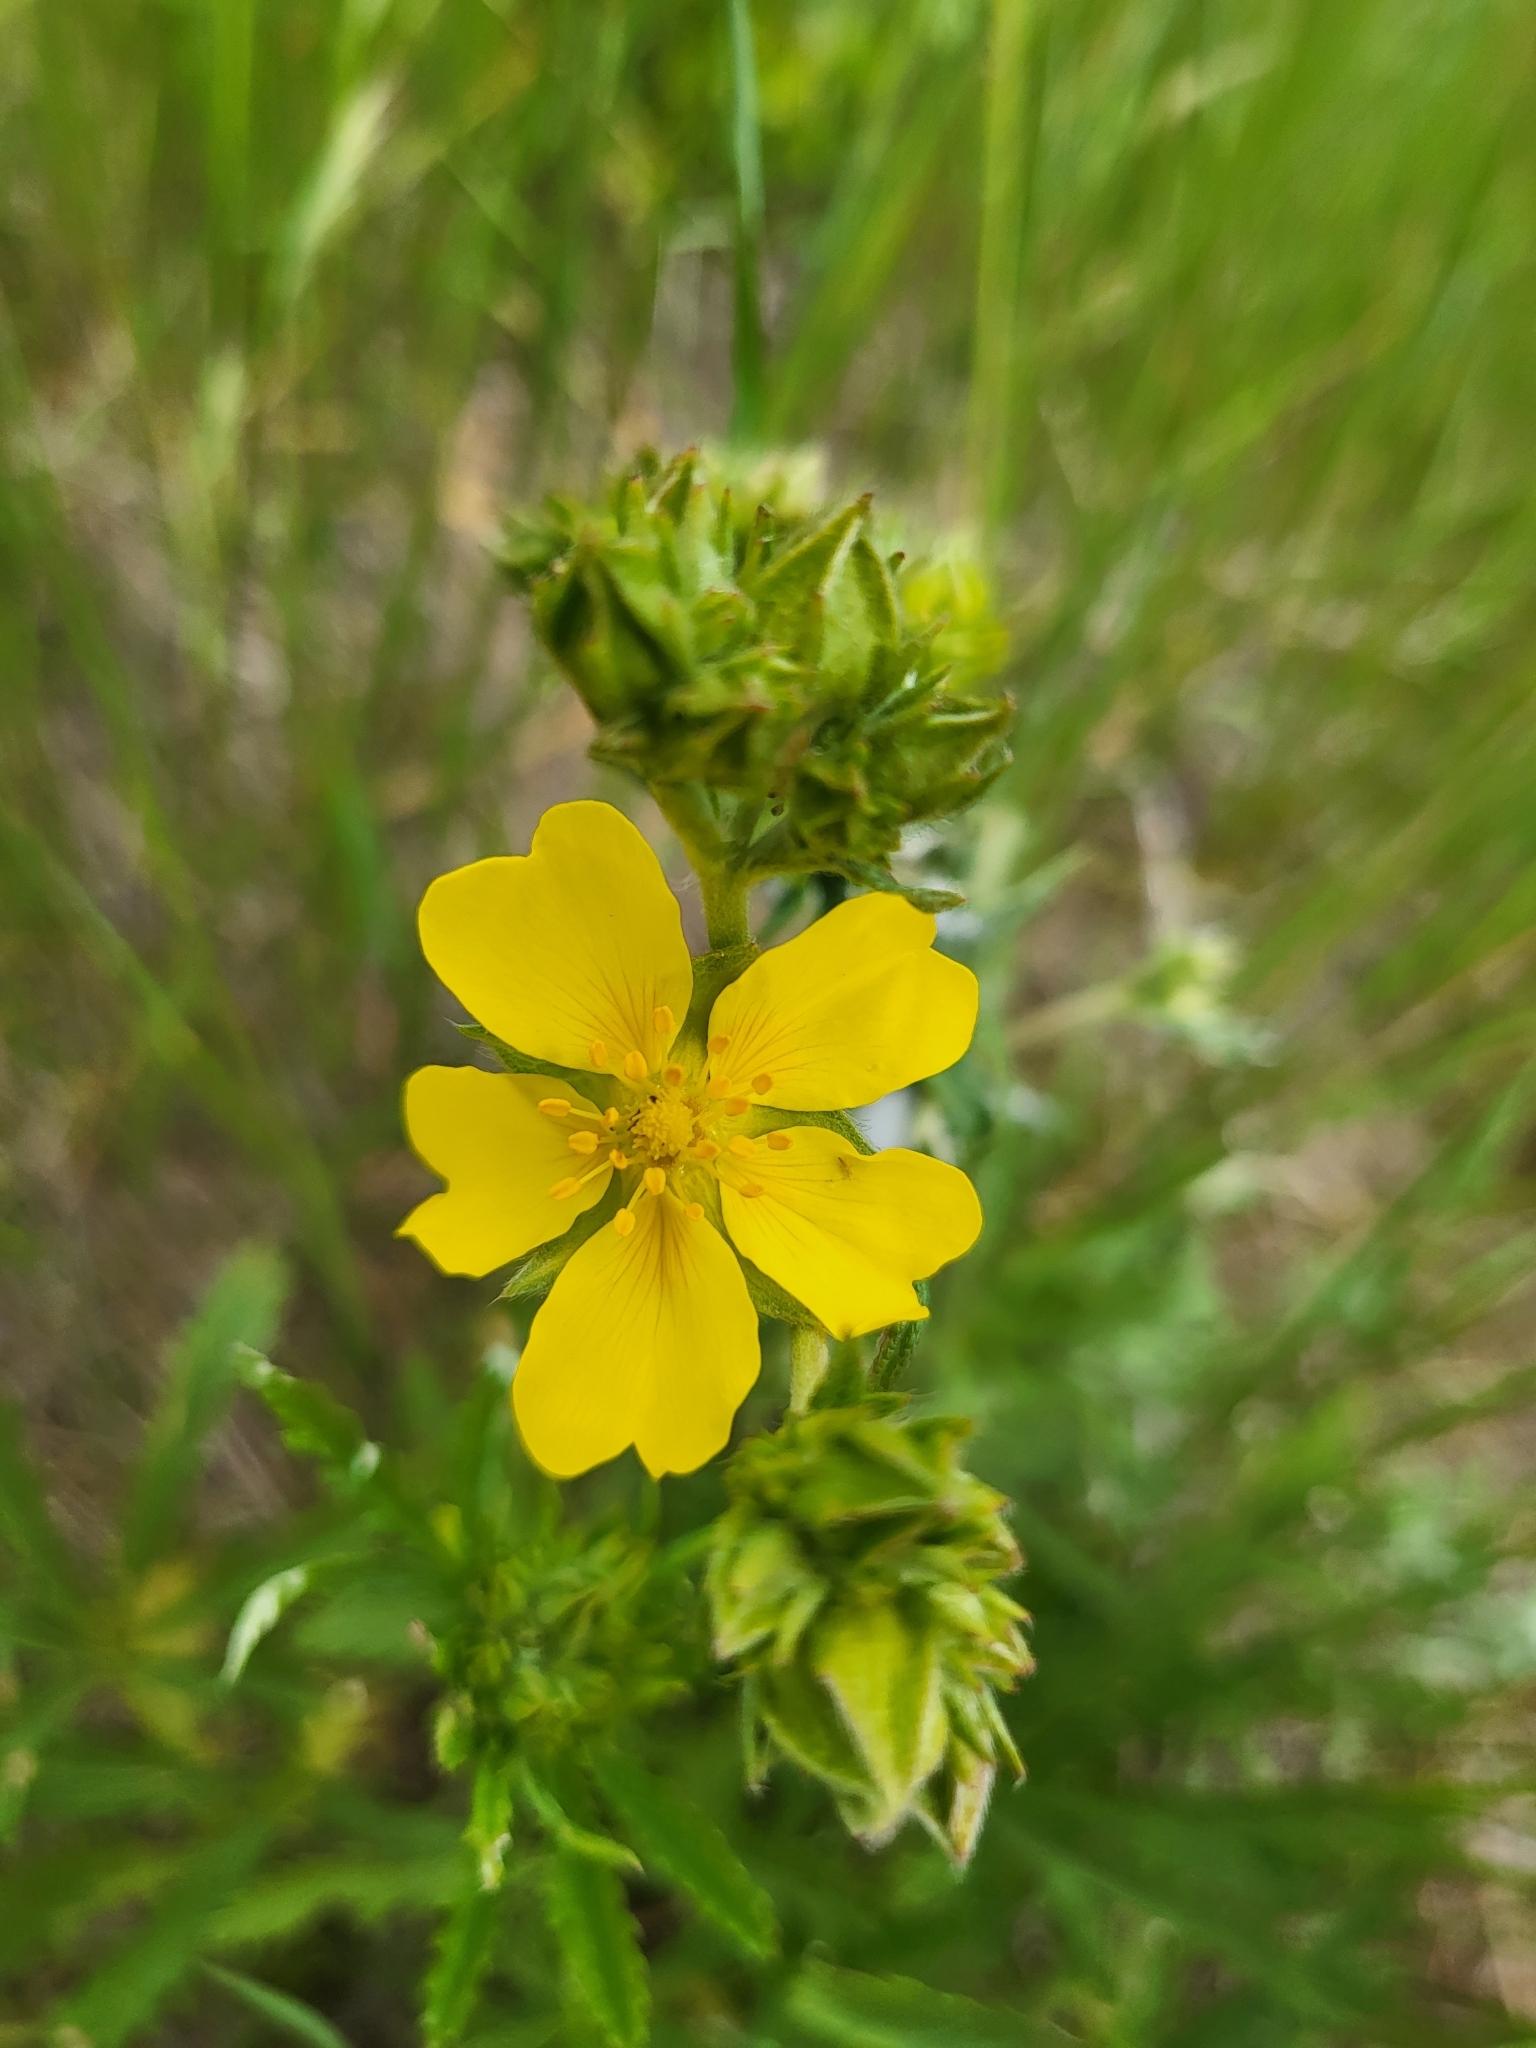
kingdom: Plantae
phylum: Tracheophyta
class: Magnoliopsida
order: Rosales
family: Rosaceae
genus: Potentilla
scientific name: Potentilla gracilis
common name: Graceful cinquefoil
